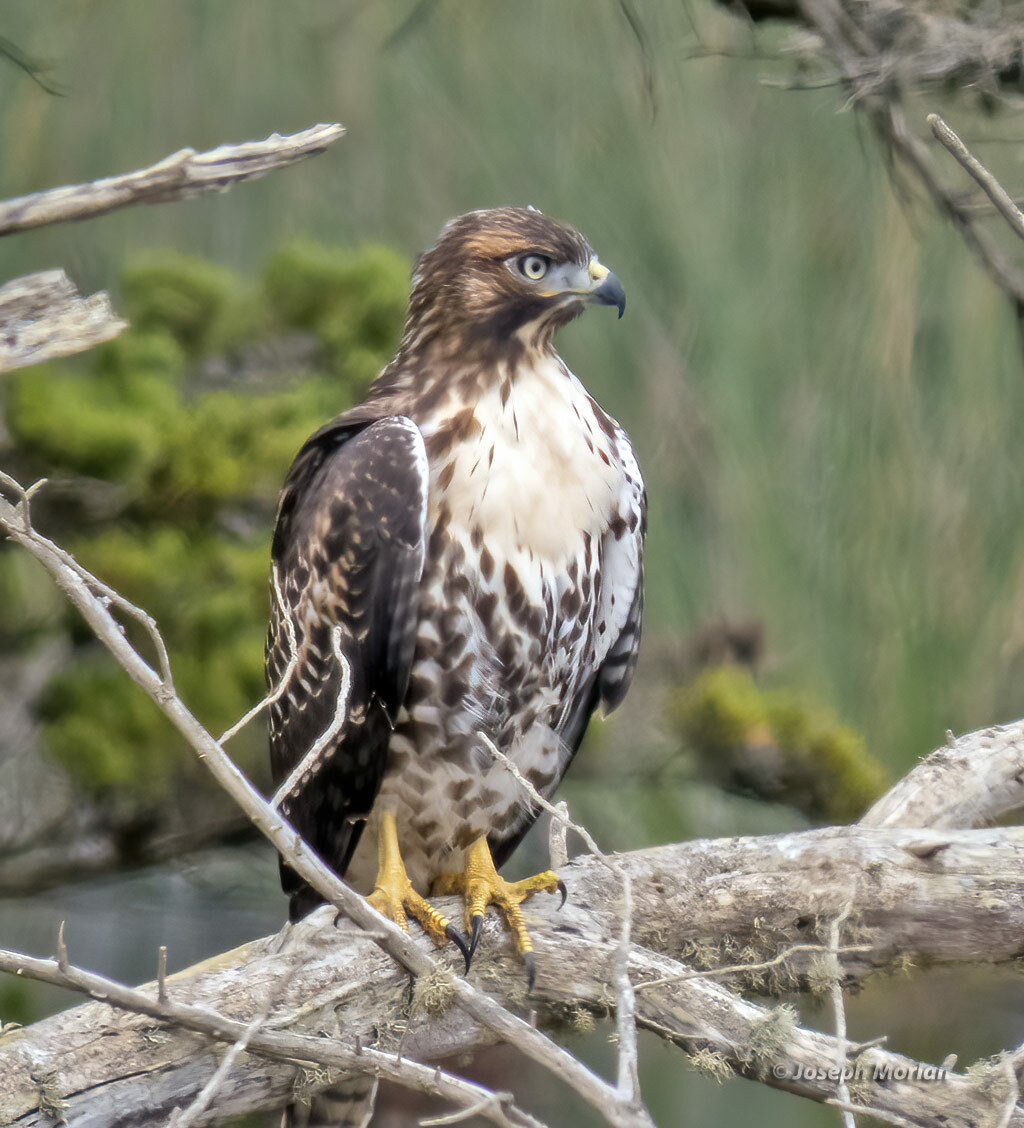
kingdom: Animalia
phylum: Chordata
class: Aves
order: Accipitriformes
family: Accipitridae
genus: Buteo
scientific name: Buteo jamaicensis
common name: Red-tailed hawk
